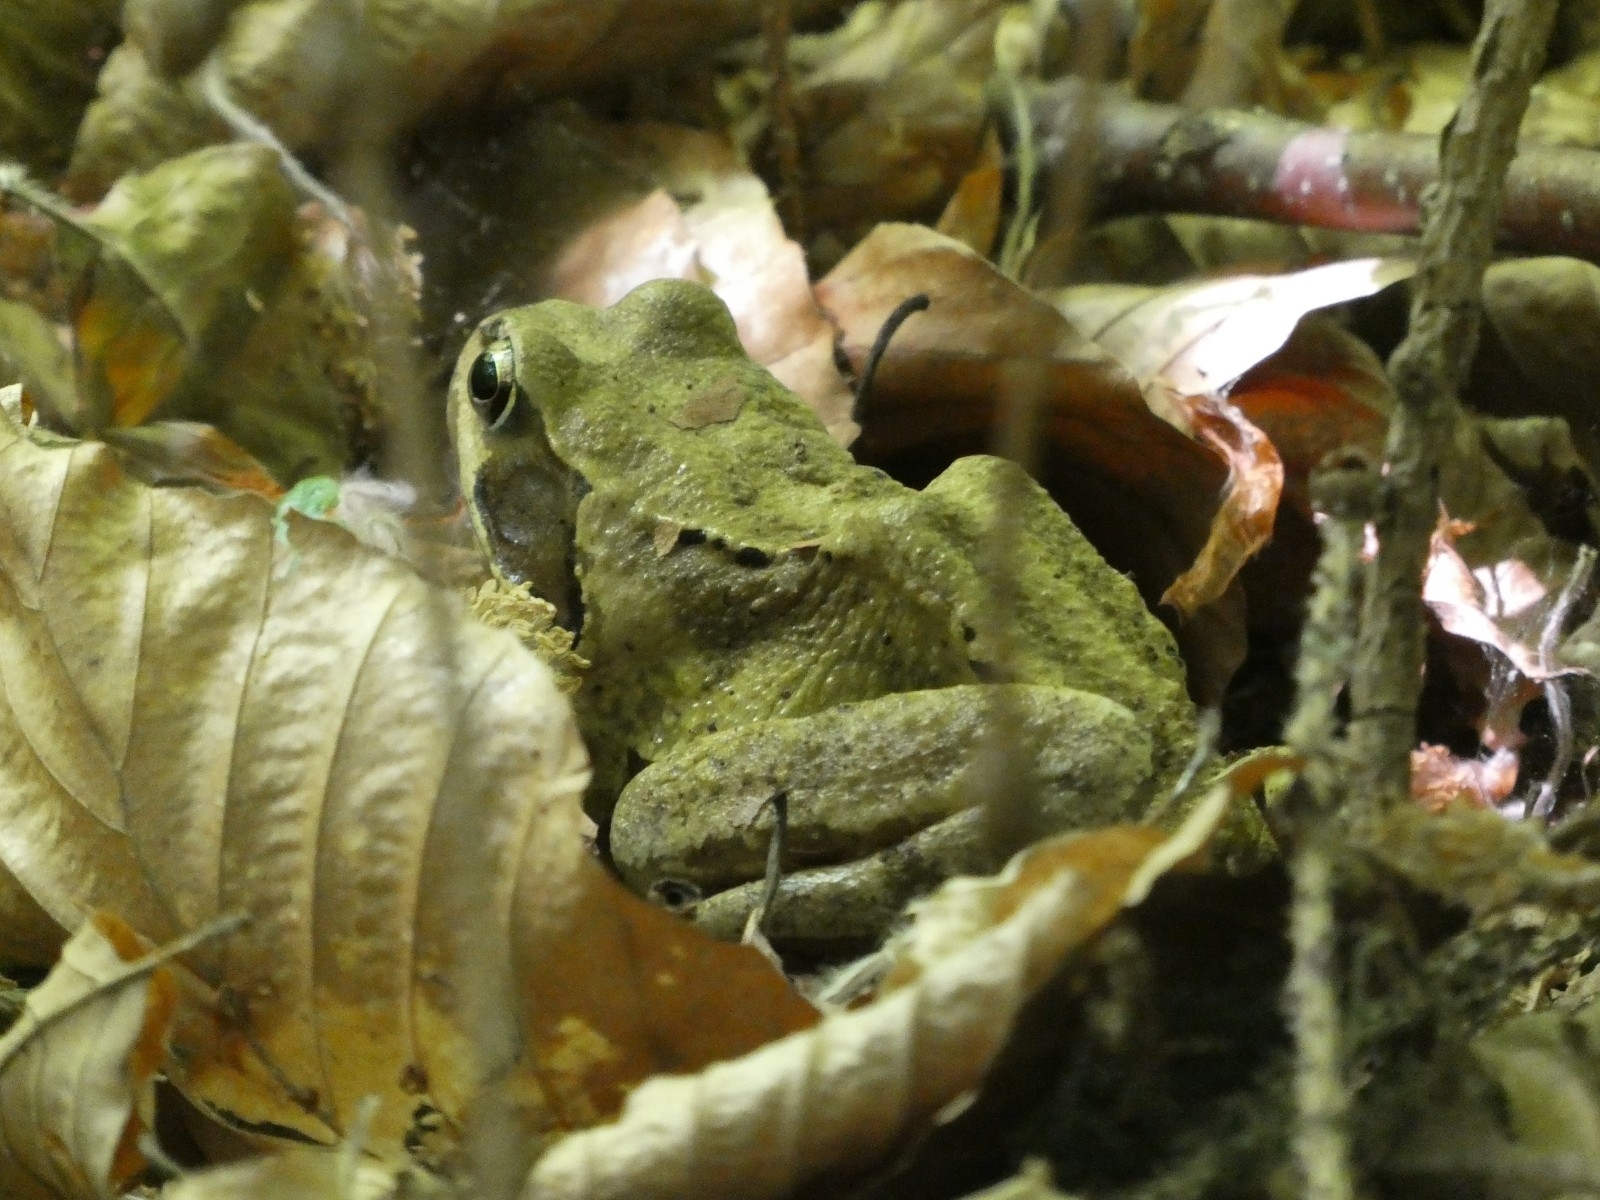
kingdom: Animalia
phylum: Chordata
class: Amphibia
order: Anura
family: Ranidae
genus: Rana
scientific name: Rana temporaria
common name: Common frog
